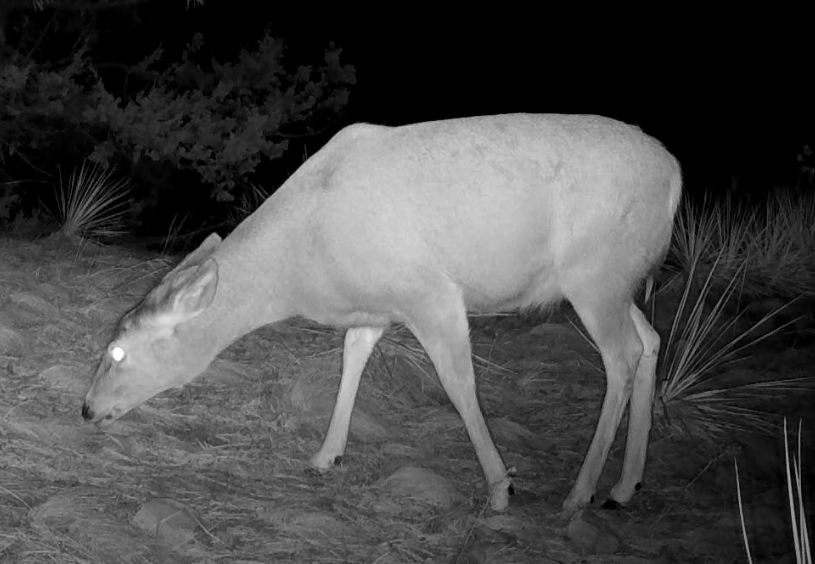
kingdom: Animalia
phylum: Chordata
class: Mammalia
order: Artiodactyla
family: Cervidae
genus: Odocoileus
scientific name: Odocoileus hemionus
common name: Mule deer
